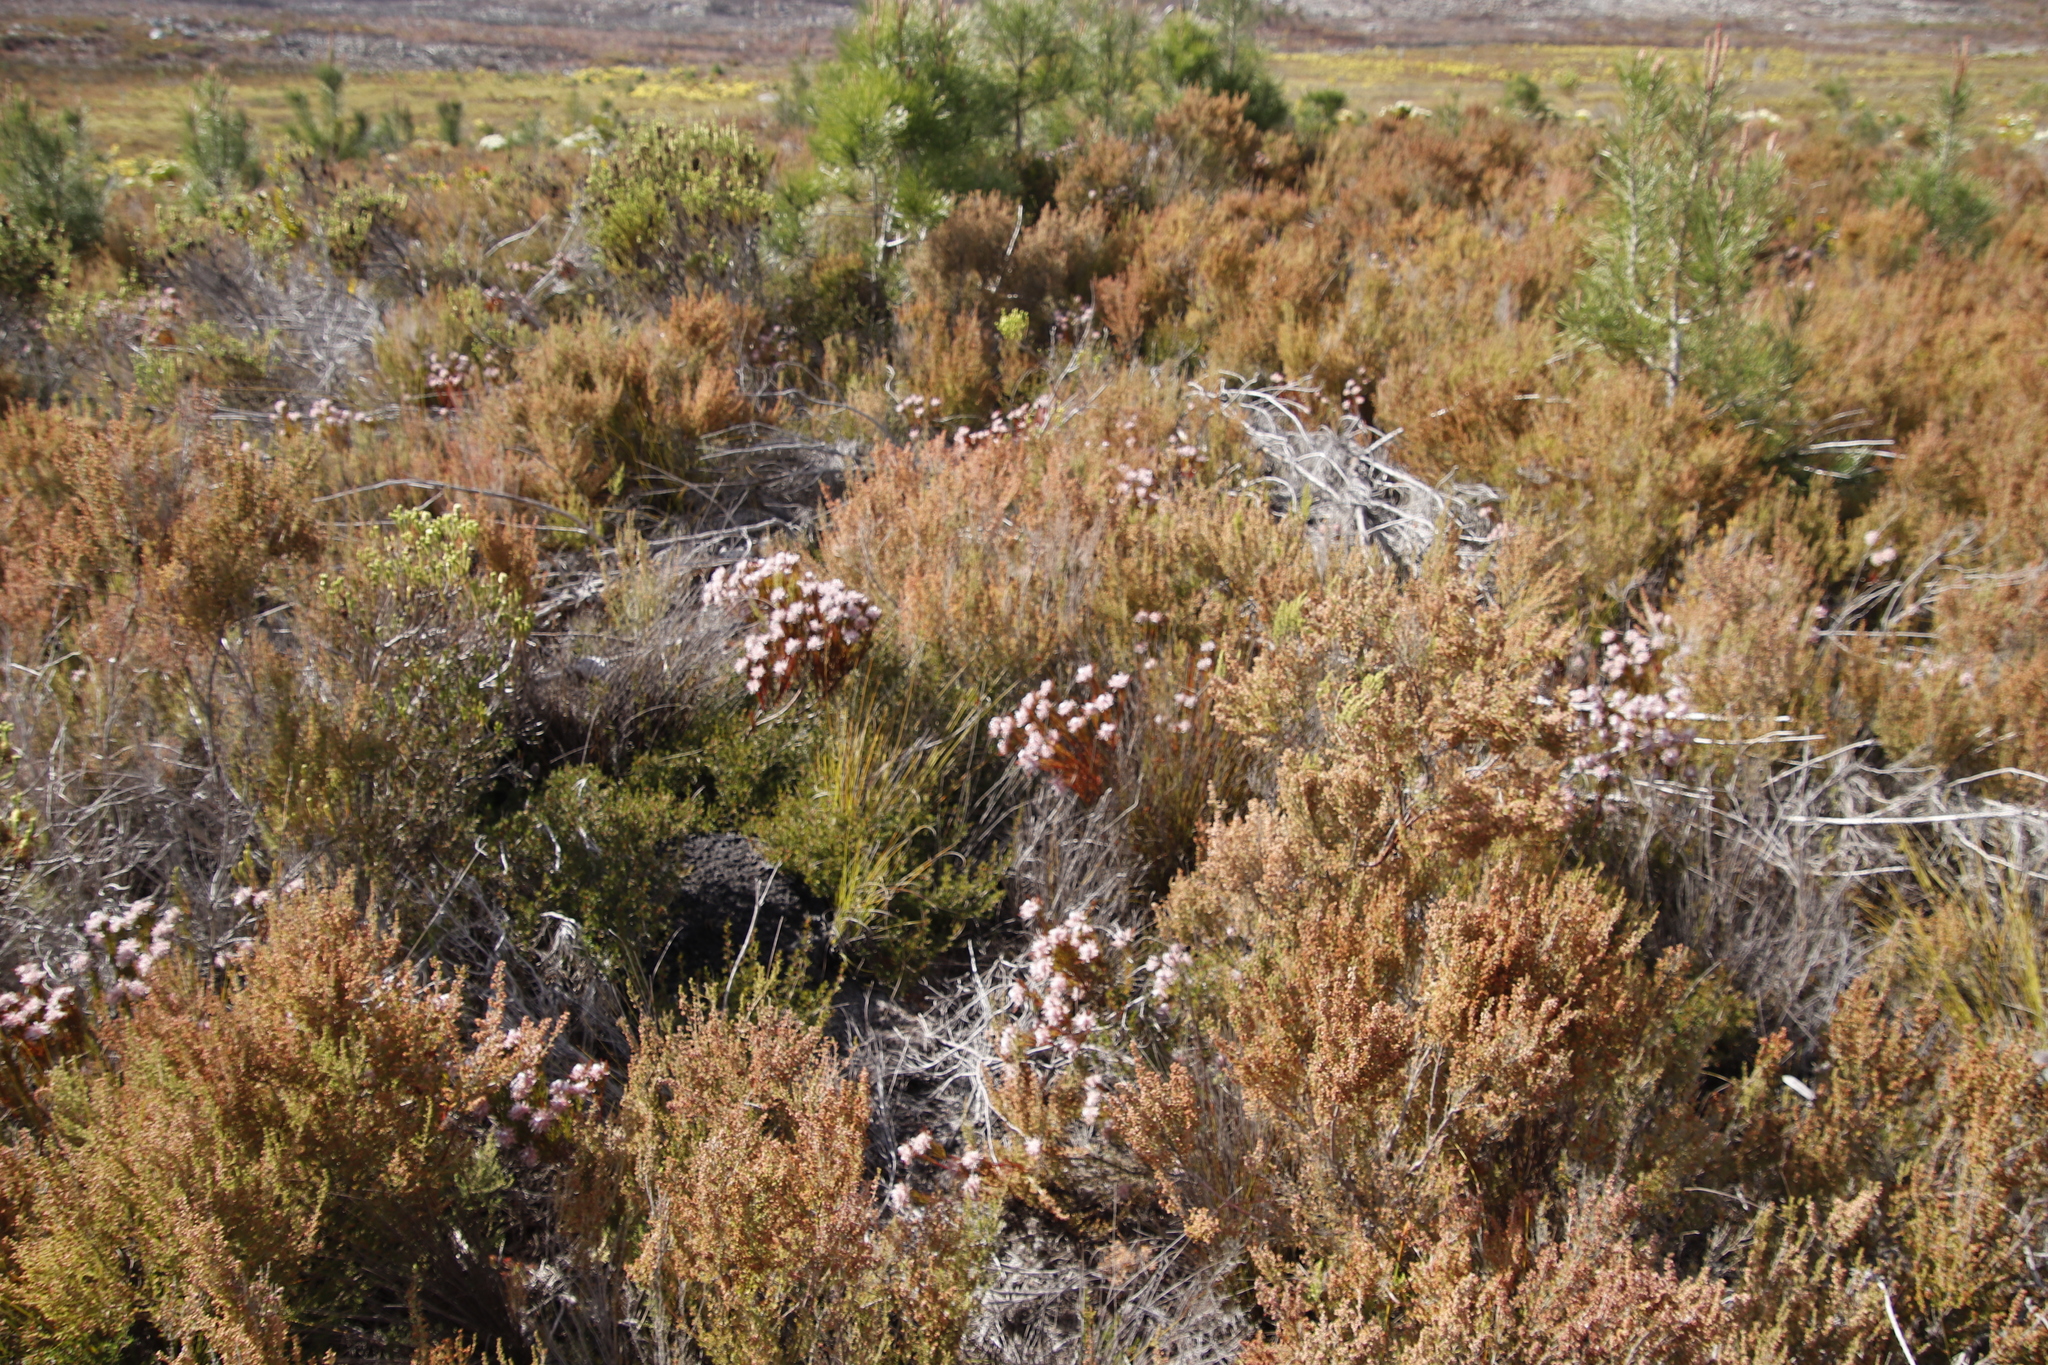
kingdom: Plantae
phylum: Tracheophyta
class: Magnoliopsida
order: Proteales
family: Proteaceae
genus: Serruria
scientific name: Serruria rostellaris
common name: Remote spiderhead
